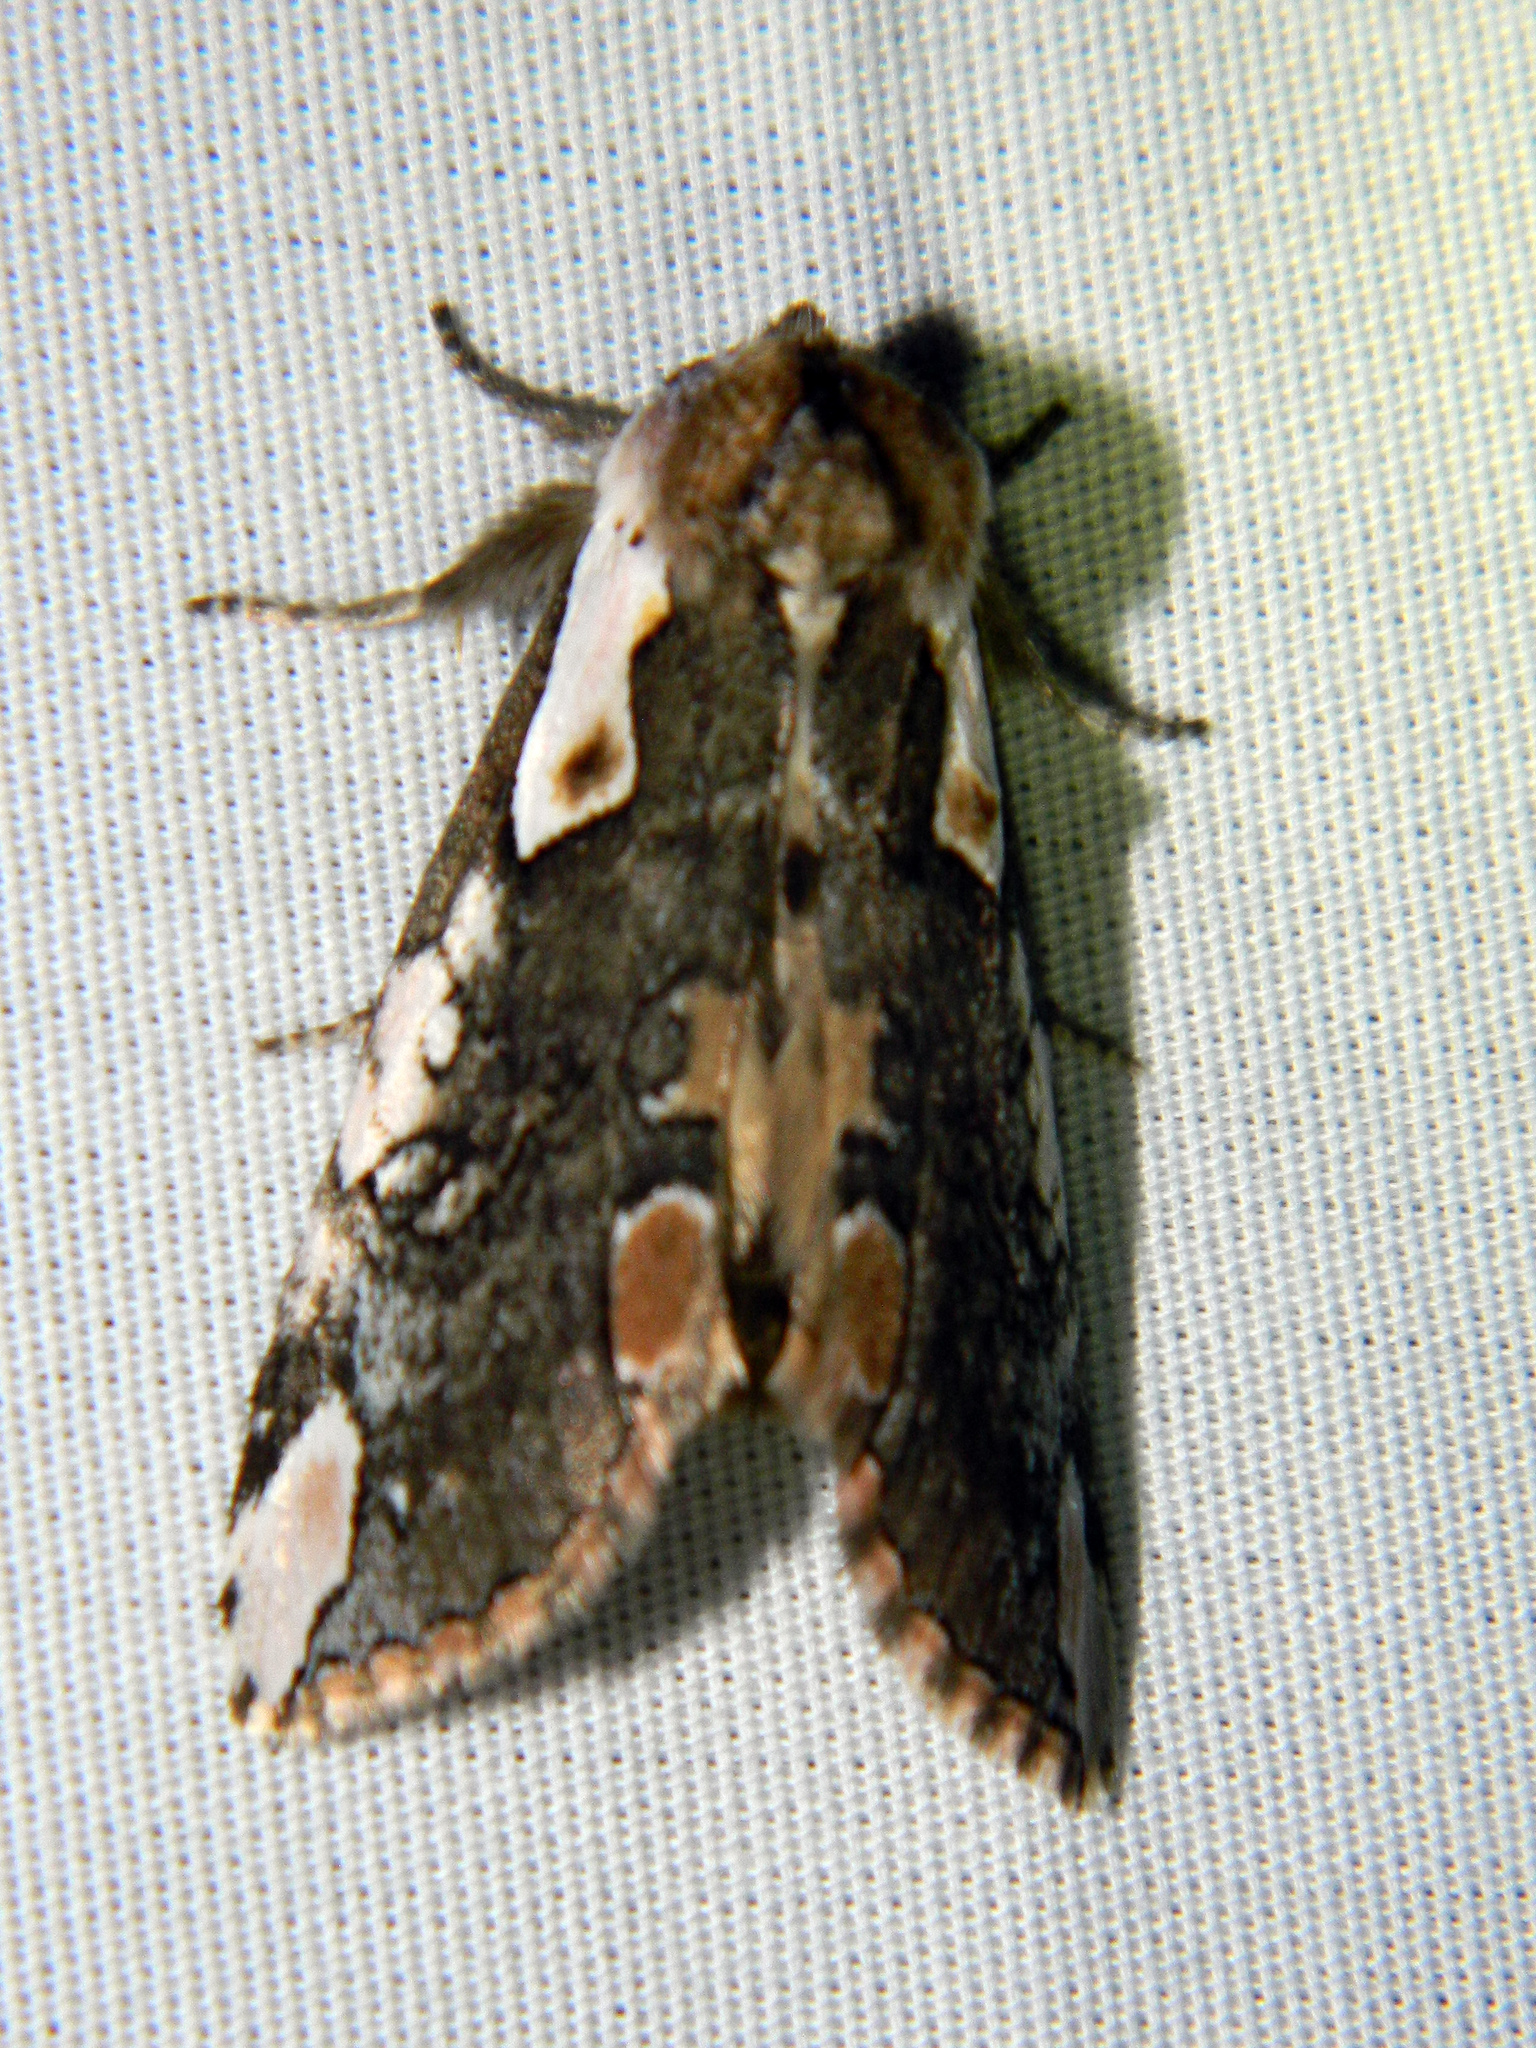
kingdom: Animalia
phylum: Arthropoda
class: Insecta
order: Lepidoptera
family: Drepanidae
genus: Euthyatira
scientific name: Euthyatira pudens
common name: Dogwood thyatirid moth
